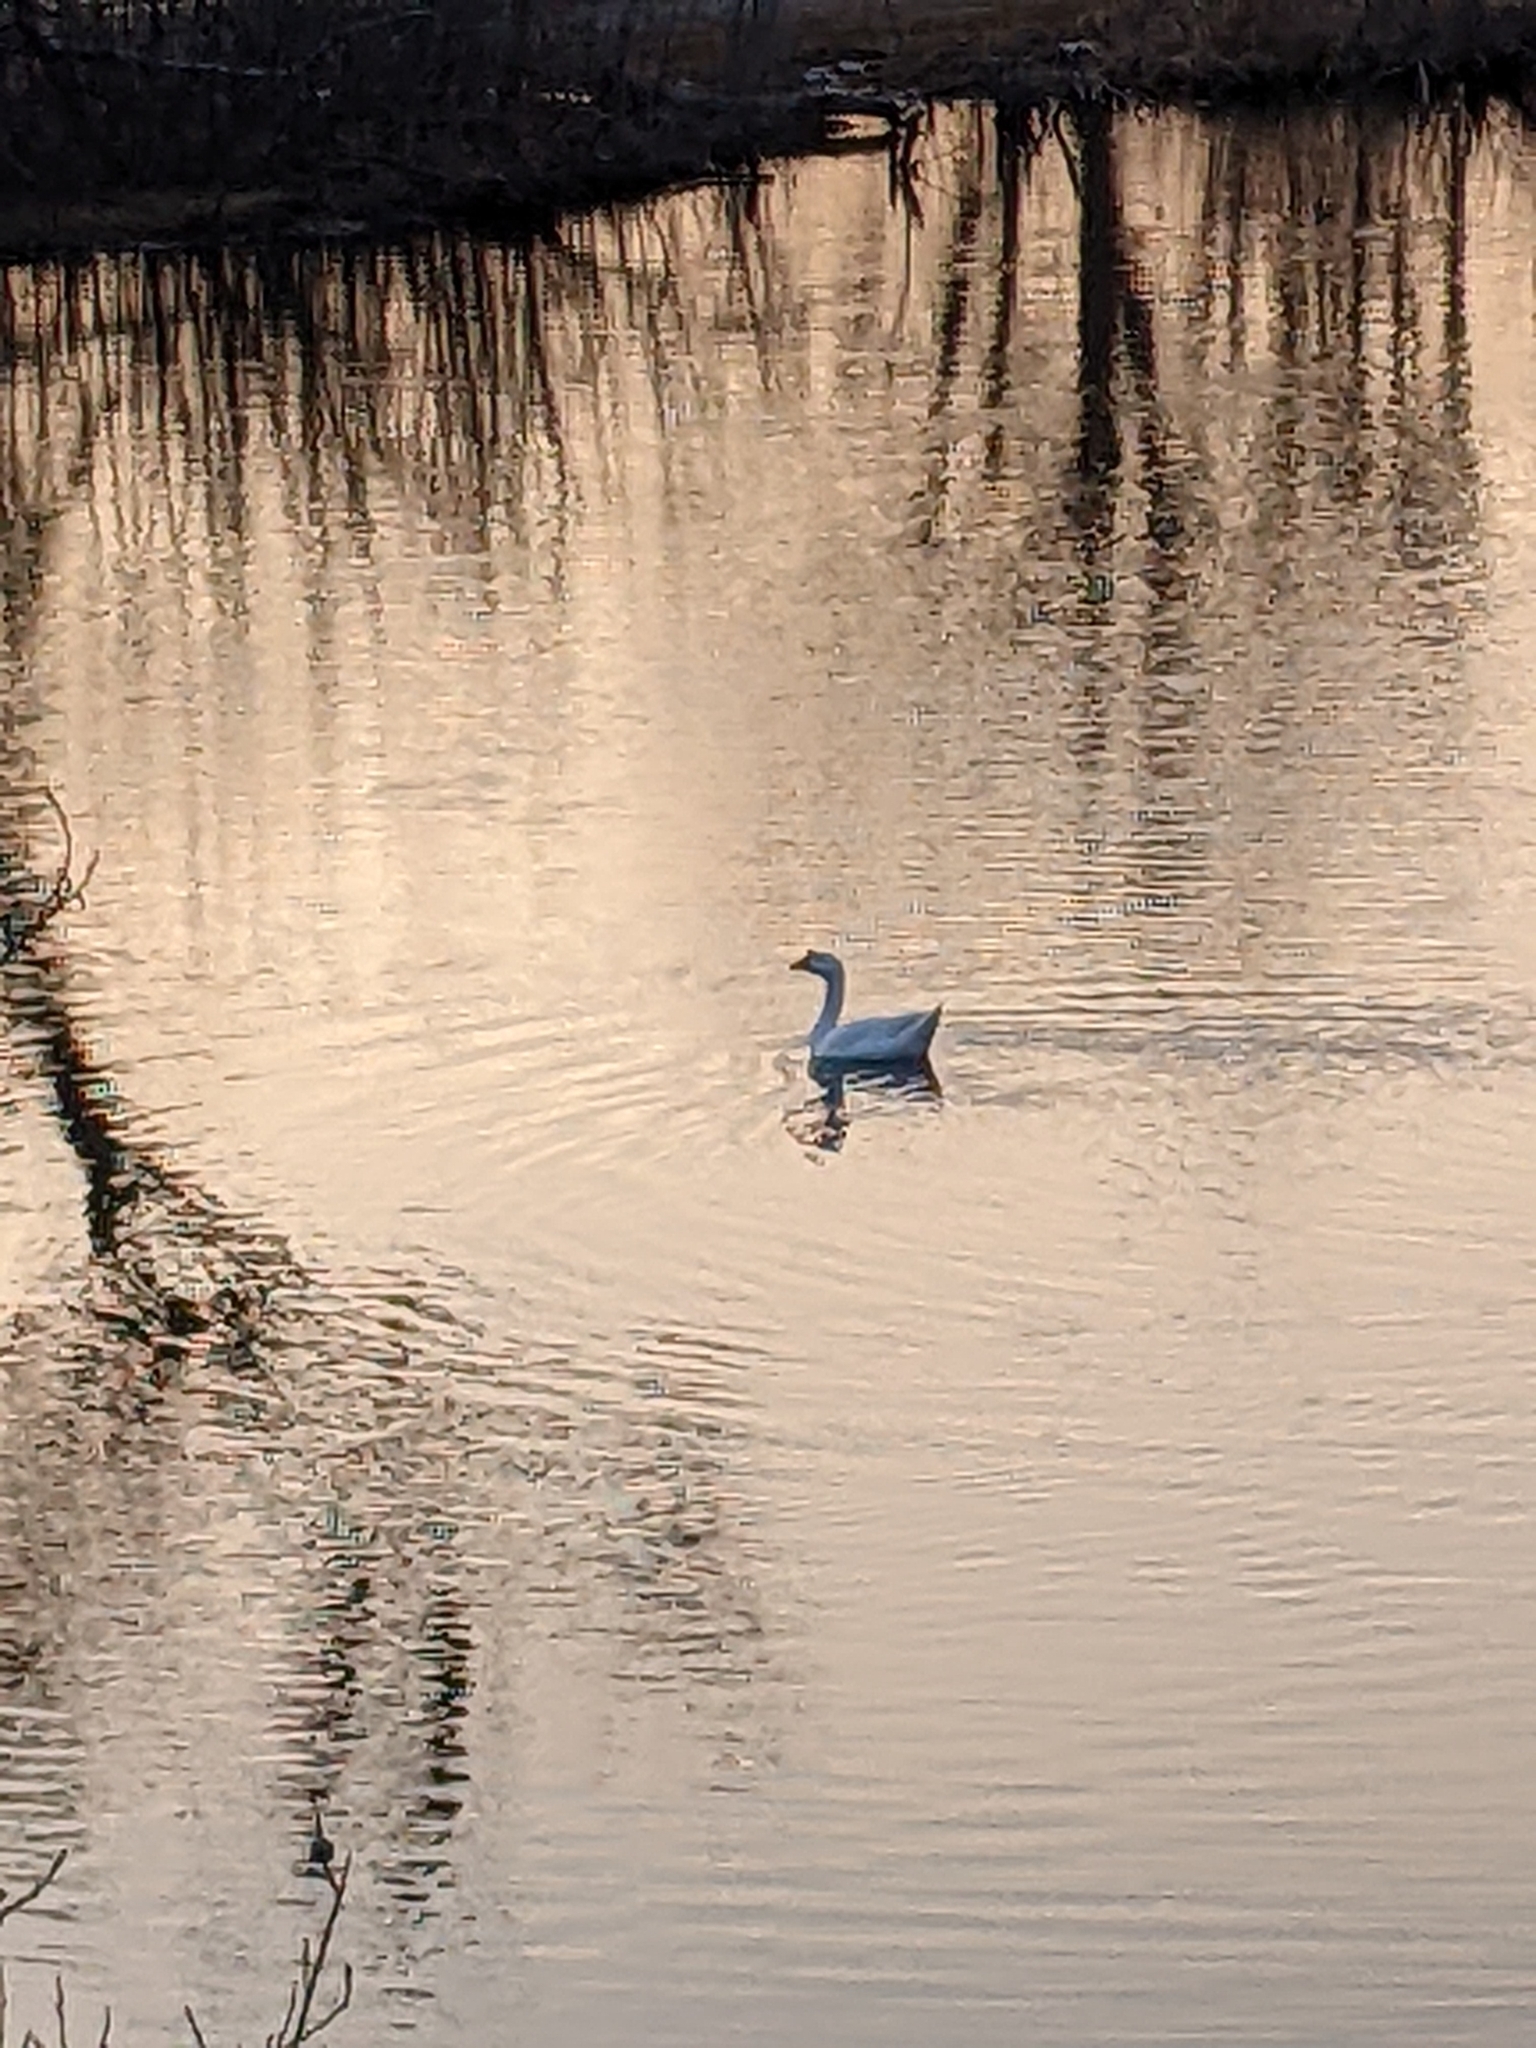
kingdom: Animalia
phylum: Chordata
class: Aves
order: Anseriformes
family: Anatidae
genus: Anser
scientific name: Anser cygnoides
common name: Swan goose
